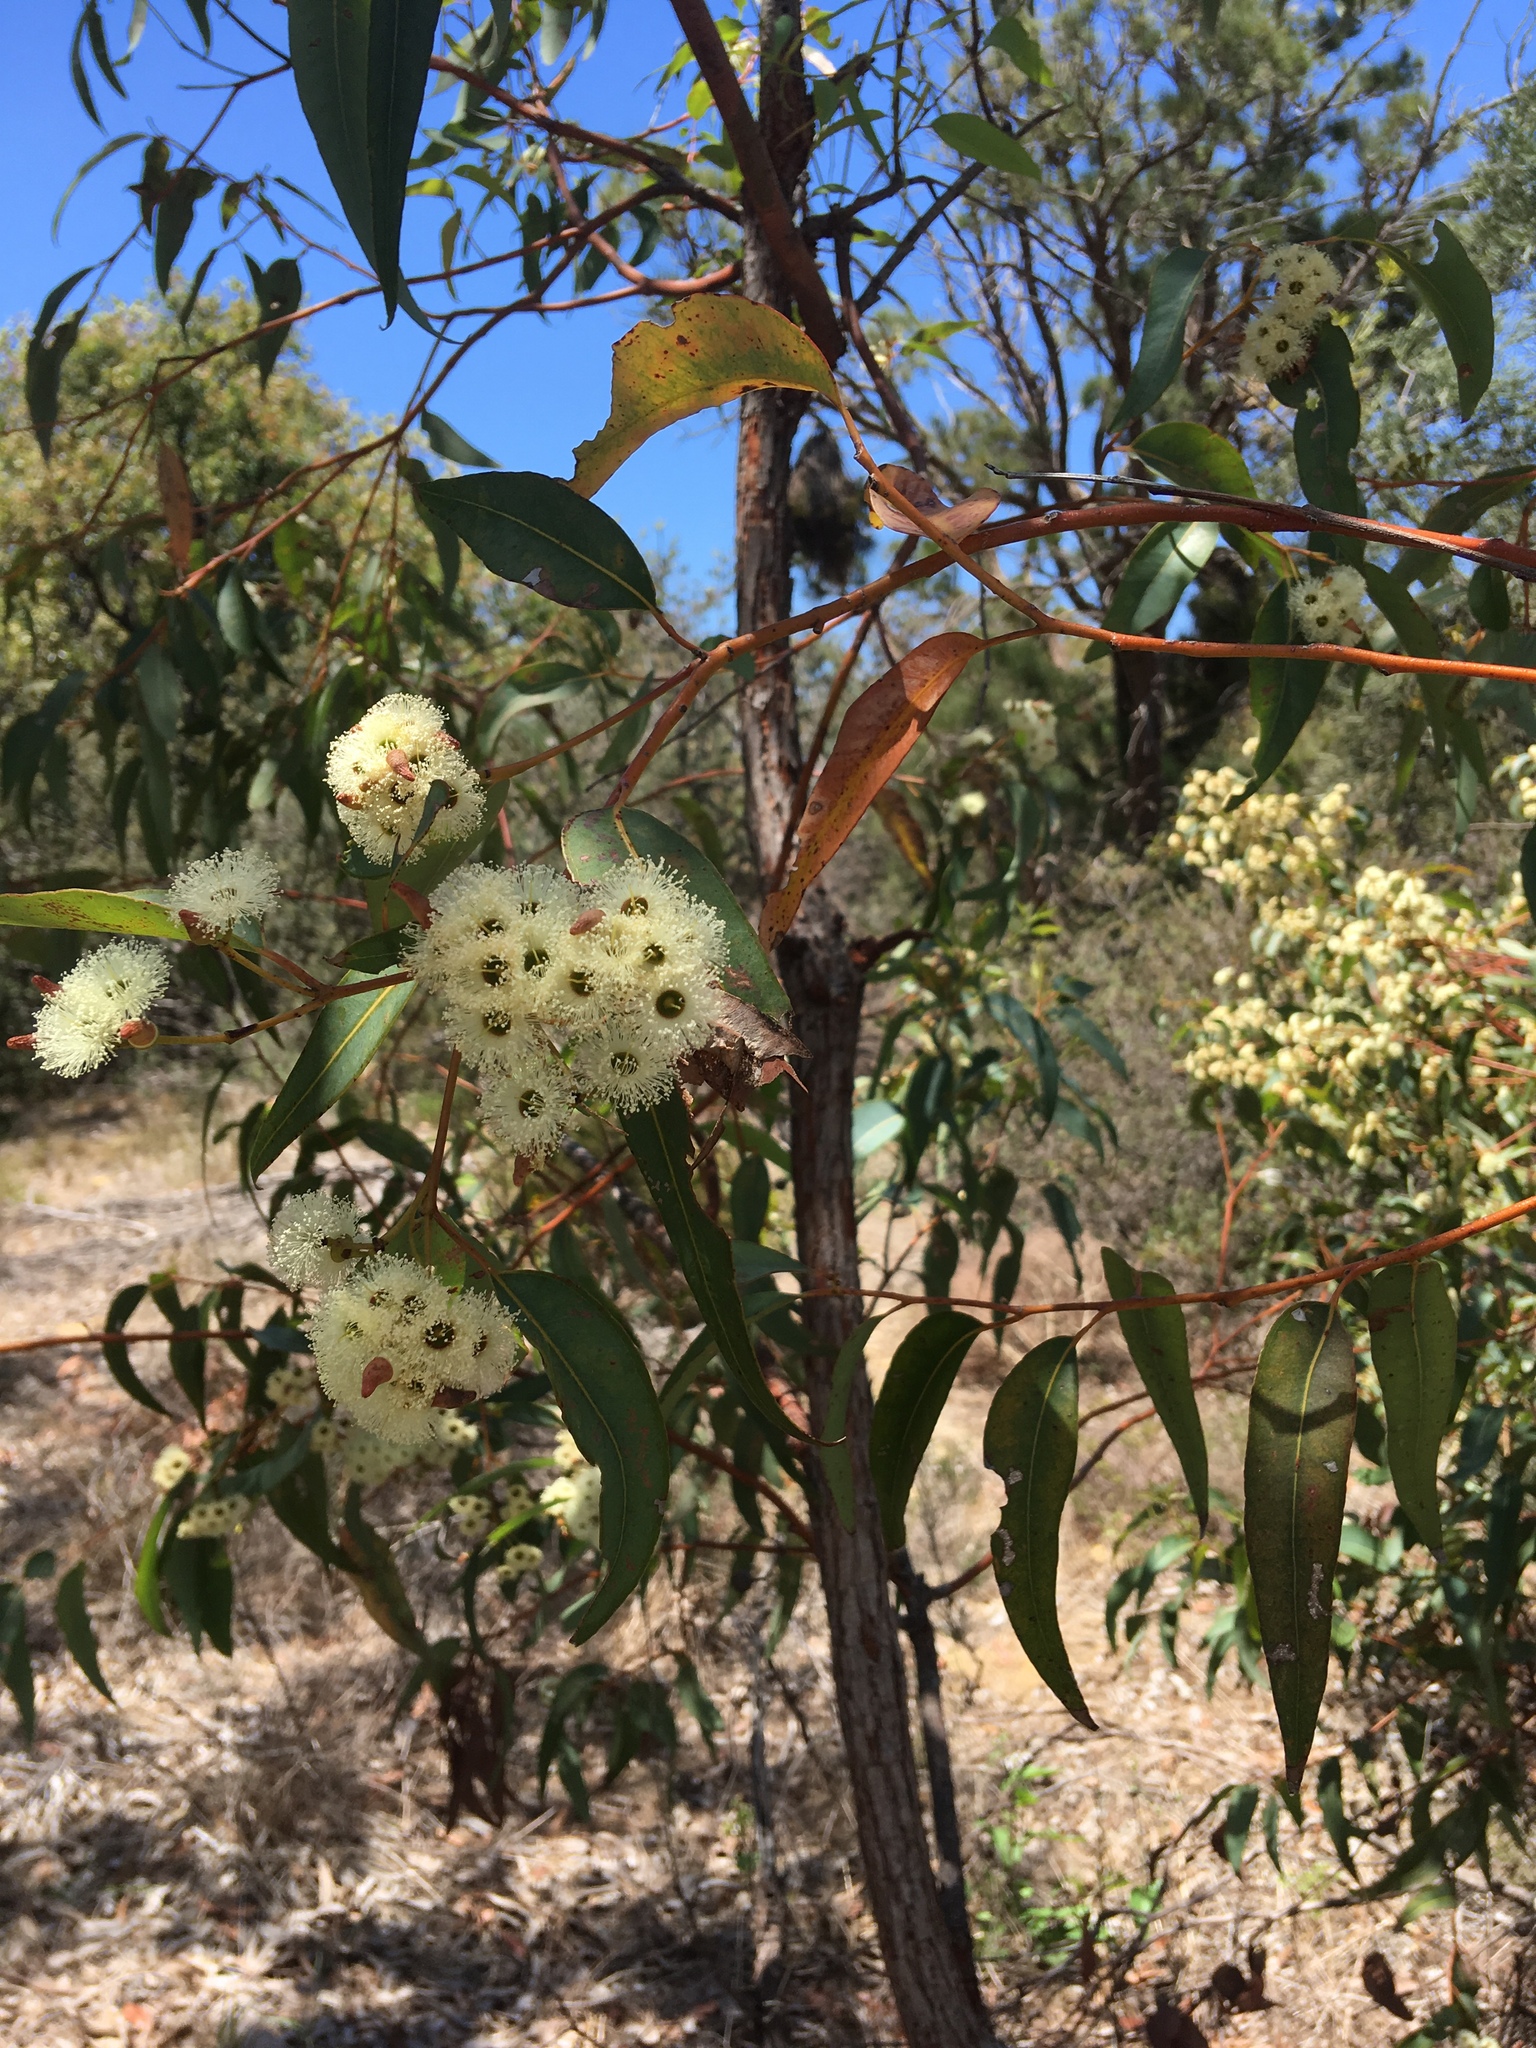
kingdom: Plantae
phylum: Tracheophyta
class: Magnoliopsida
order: Myrtales
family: Myrtaceae
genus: Eucalyptus
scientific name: Eucalyptus marginata
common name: Jarrah
